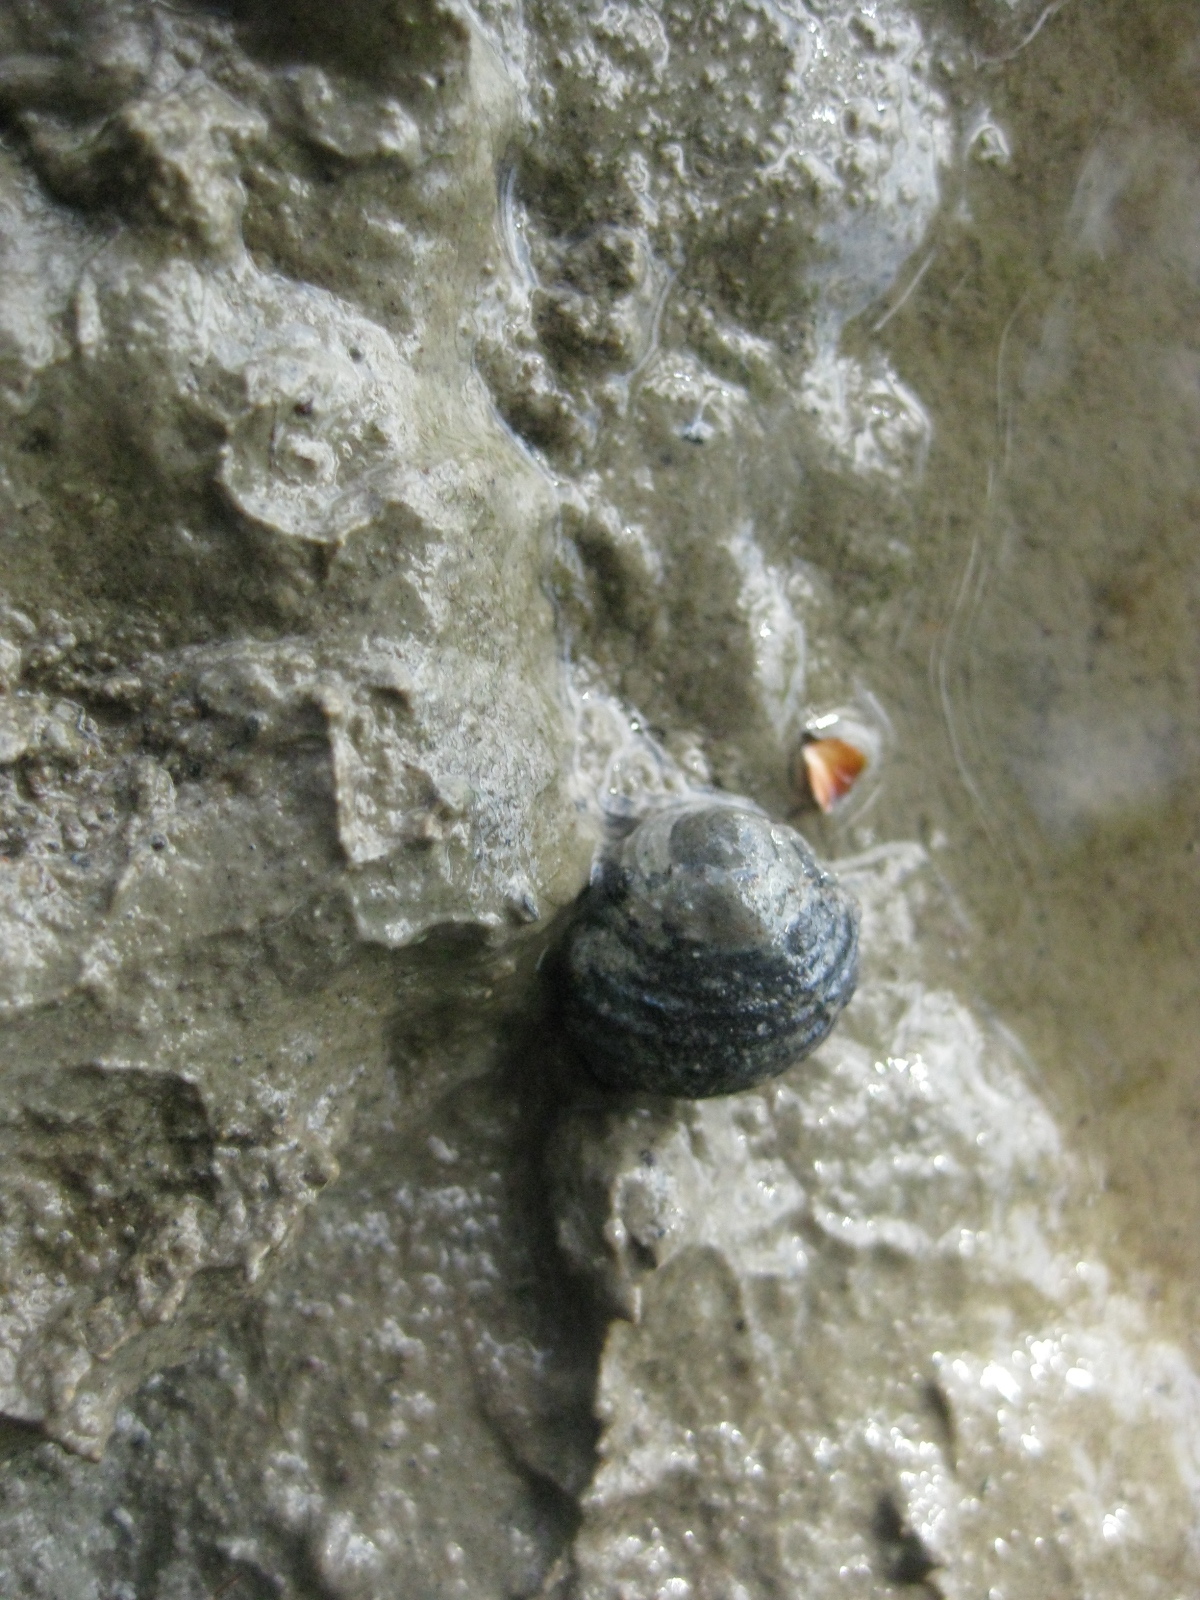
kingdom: Animalia
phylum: Mollusca
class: Gastropoda
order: Trochida
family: Trochidae
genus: Diloma
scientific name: Diloma subrostratum
